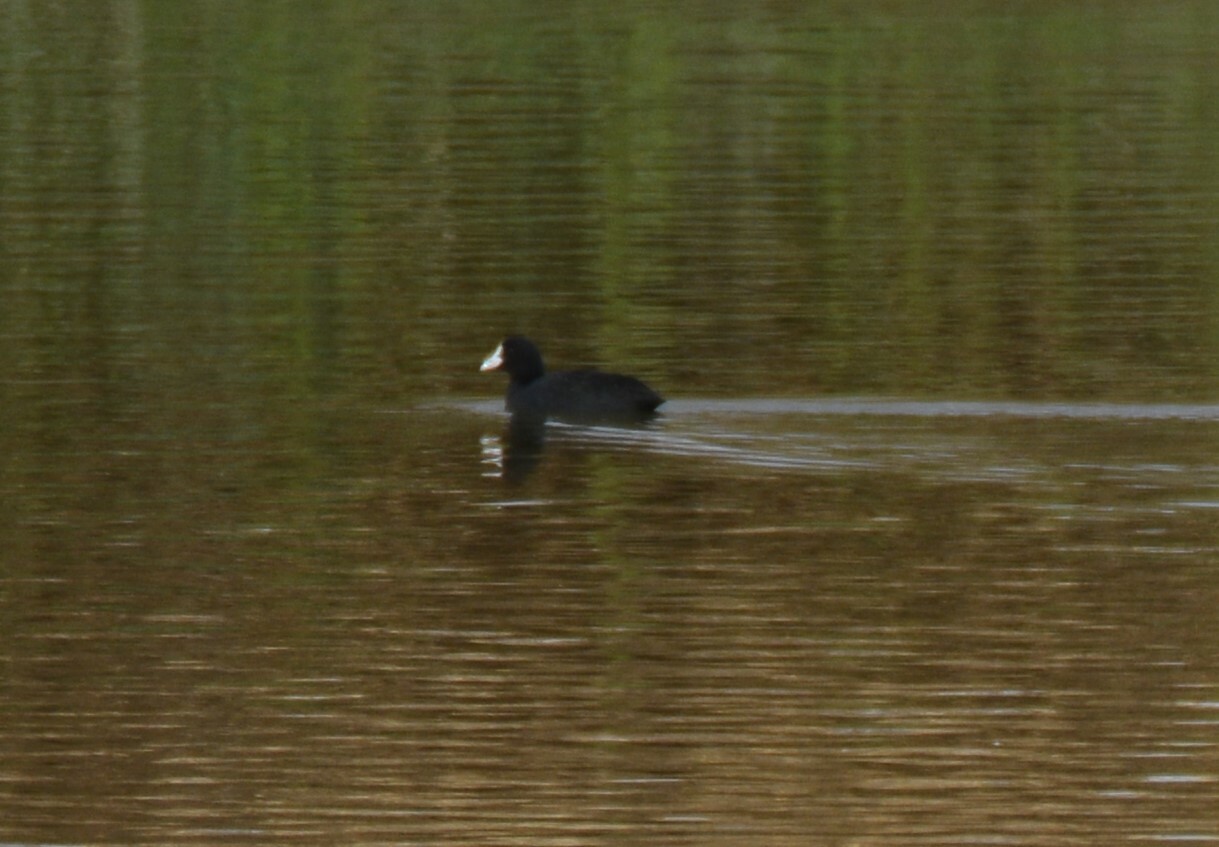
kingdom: Animalia
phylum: Chordata
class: Aves
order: Gruiformes
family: Rallidae
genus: Fulica
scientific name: Fulica atra
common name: Eurasian coot
